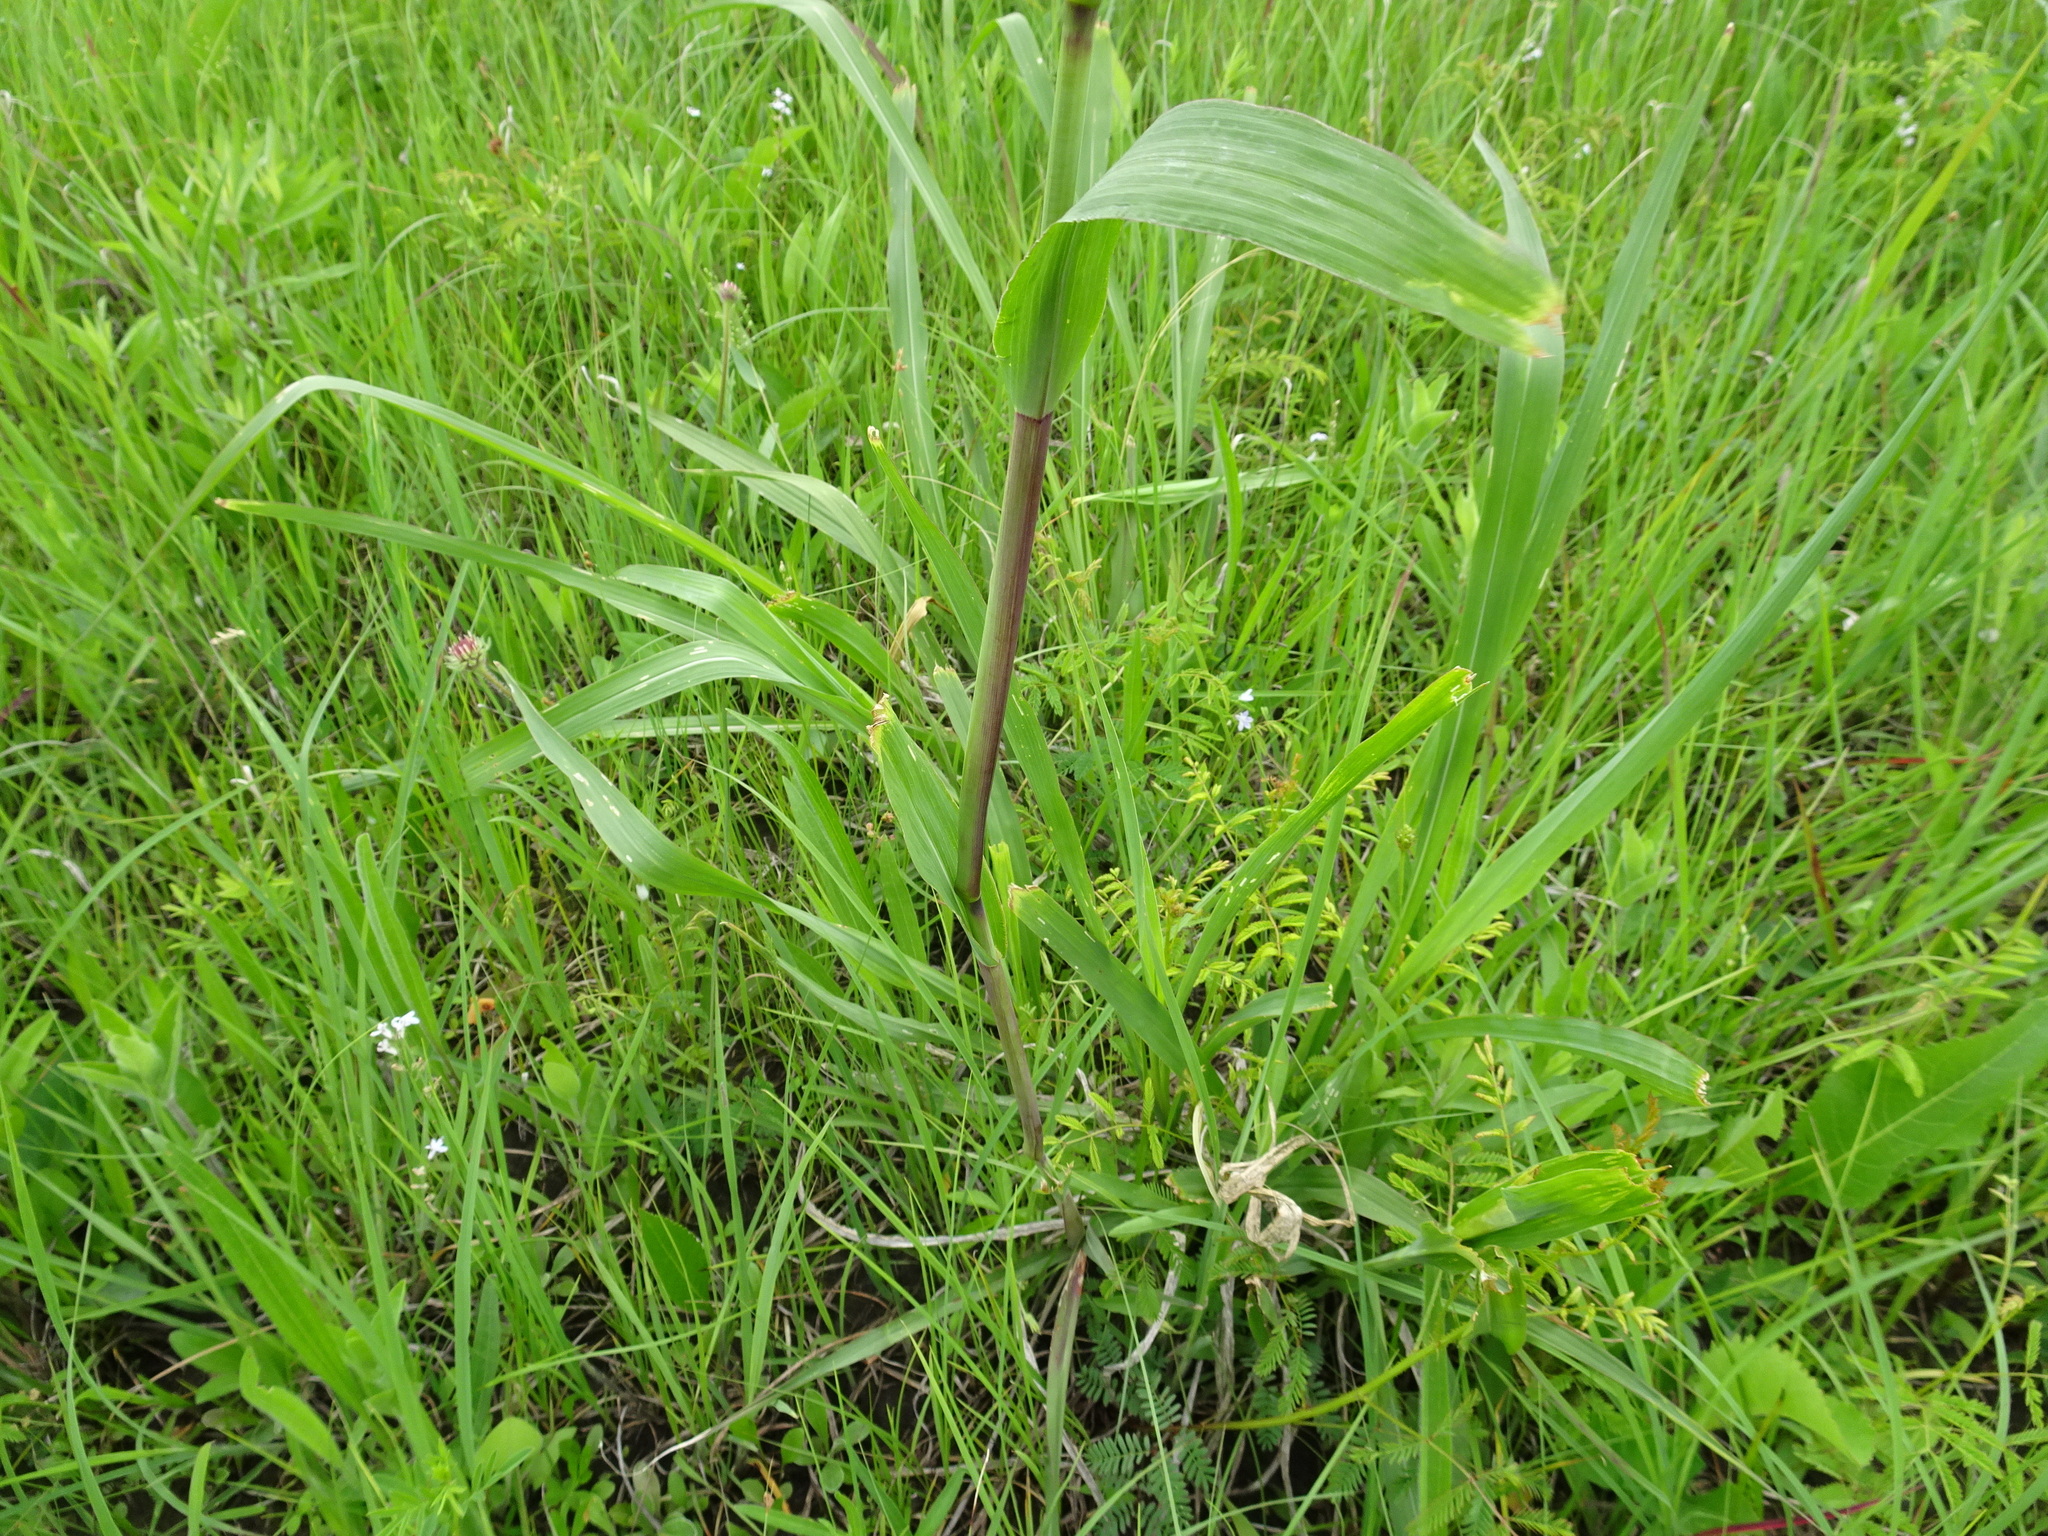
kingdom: Plantae
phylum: Tracheophyta
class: Liliopsida
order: Poales
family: Poaceae
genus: Tripsacum
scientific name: Tripsacum dactyloides
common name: Buffalo-grass
